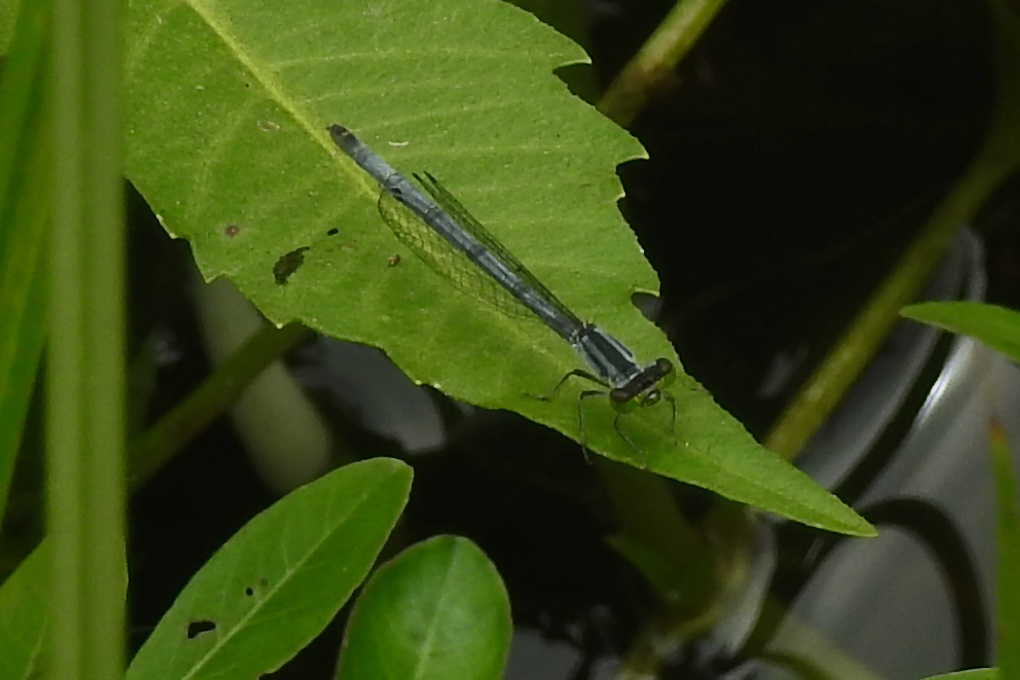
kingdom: Animalia
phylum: Arthropoda
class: Insecta
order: Odonata
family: Coenagrionidae
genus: Ischnura
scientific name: Ischnura verticalis
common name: Eastern forktail
